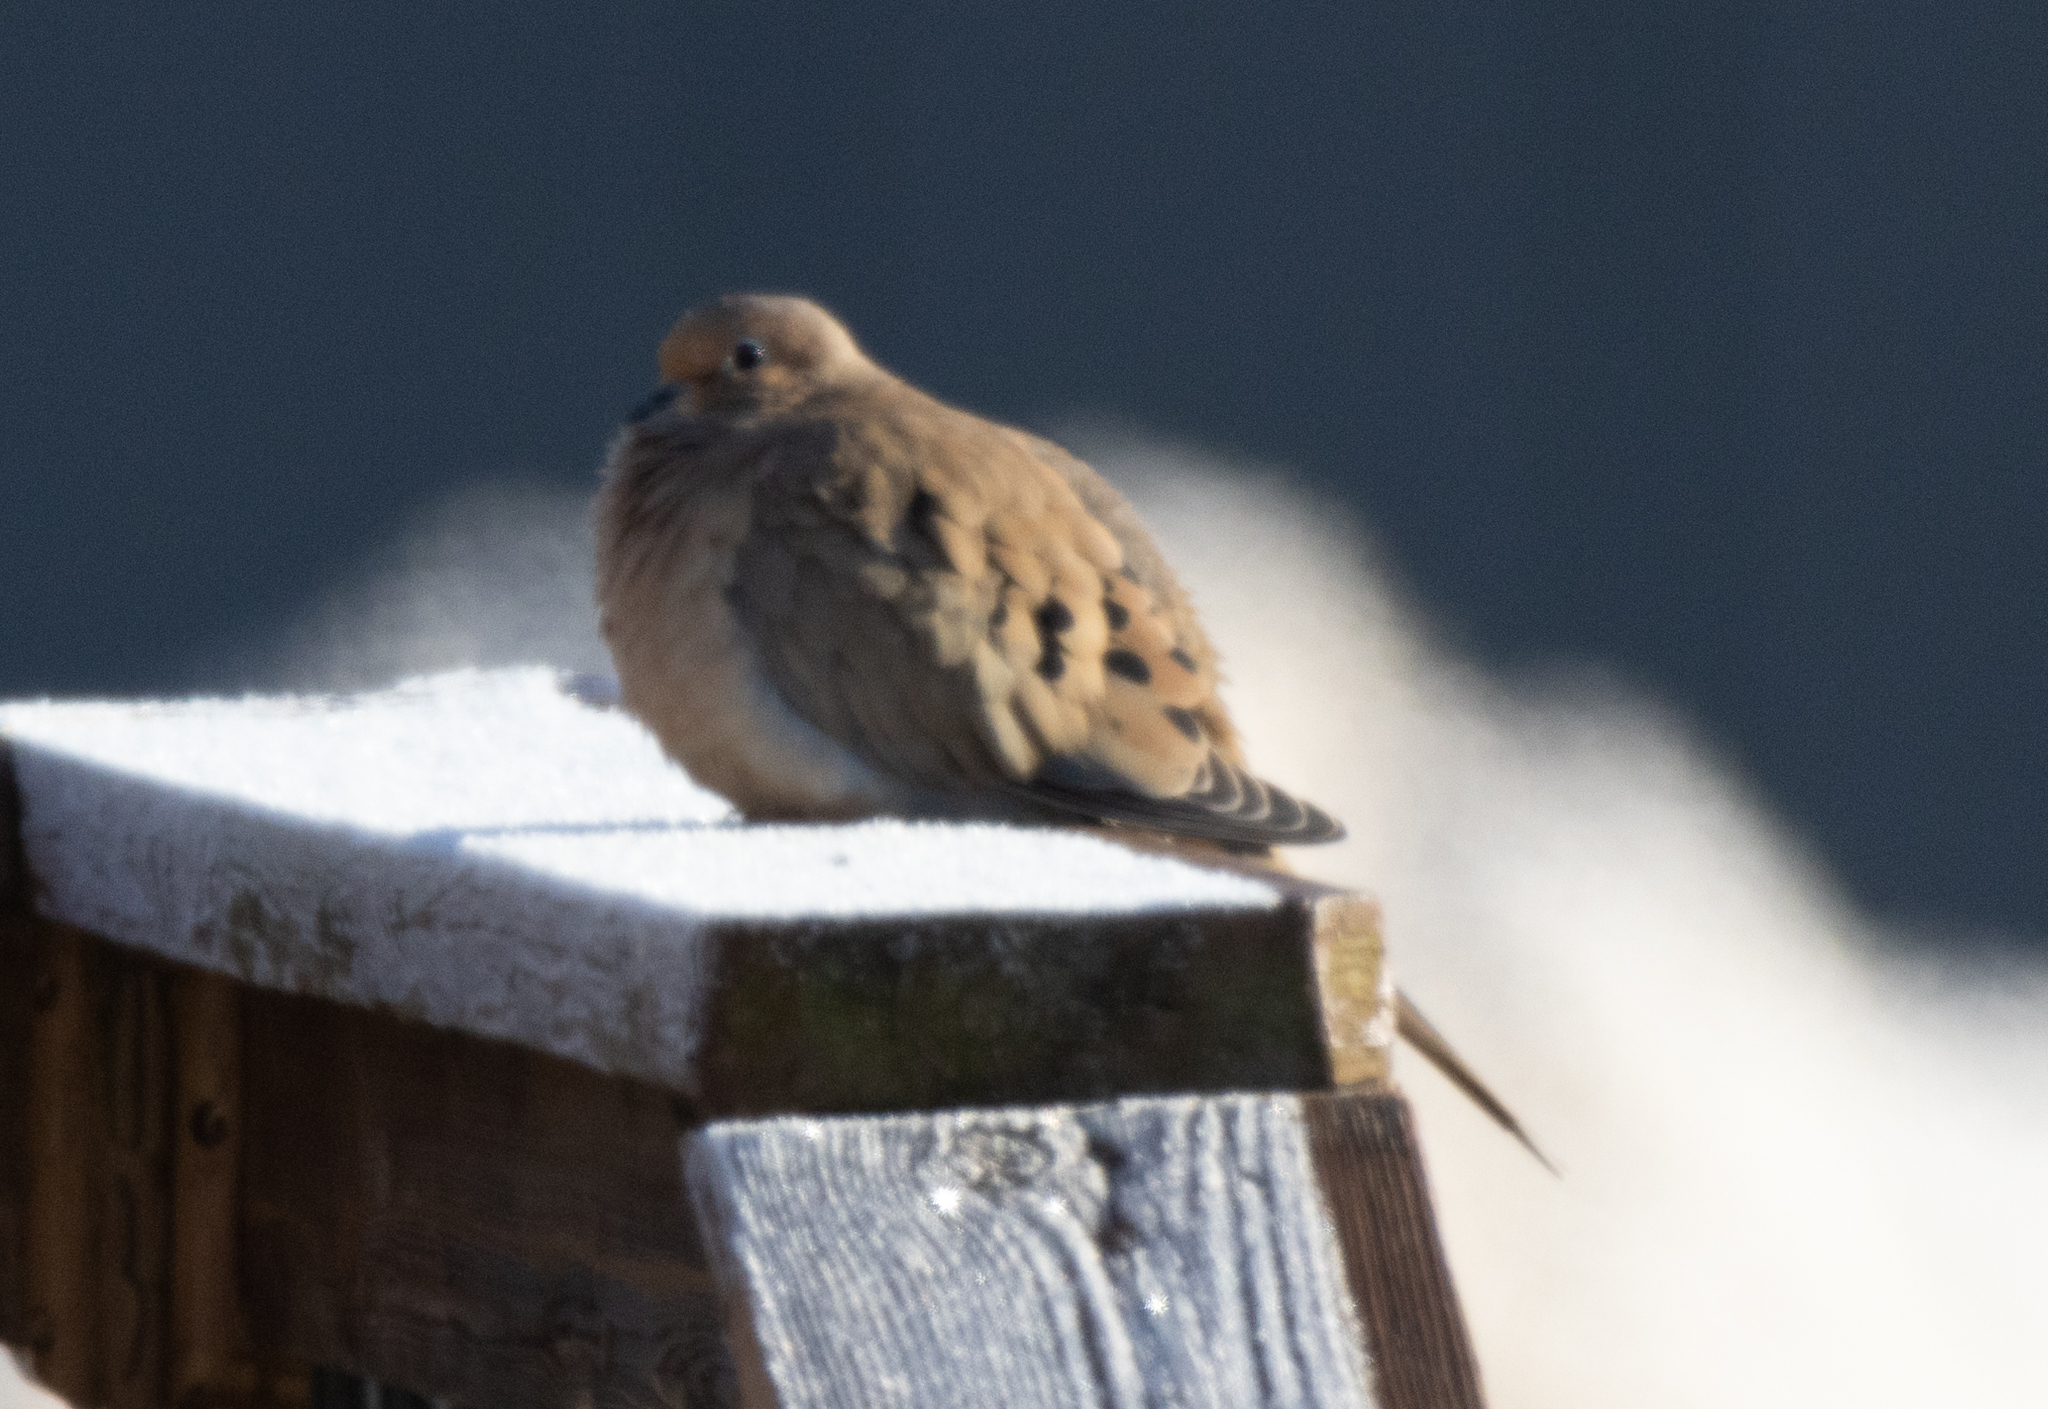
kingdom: Animalia
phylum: Chordata
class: Aves
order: Columbiformes
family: Columbidae
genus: Zenaida
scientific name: Zenaida macroura
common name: Mourning dove
